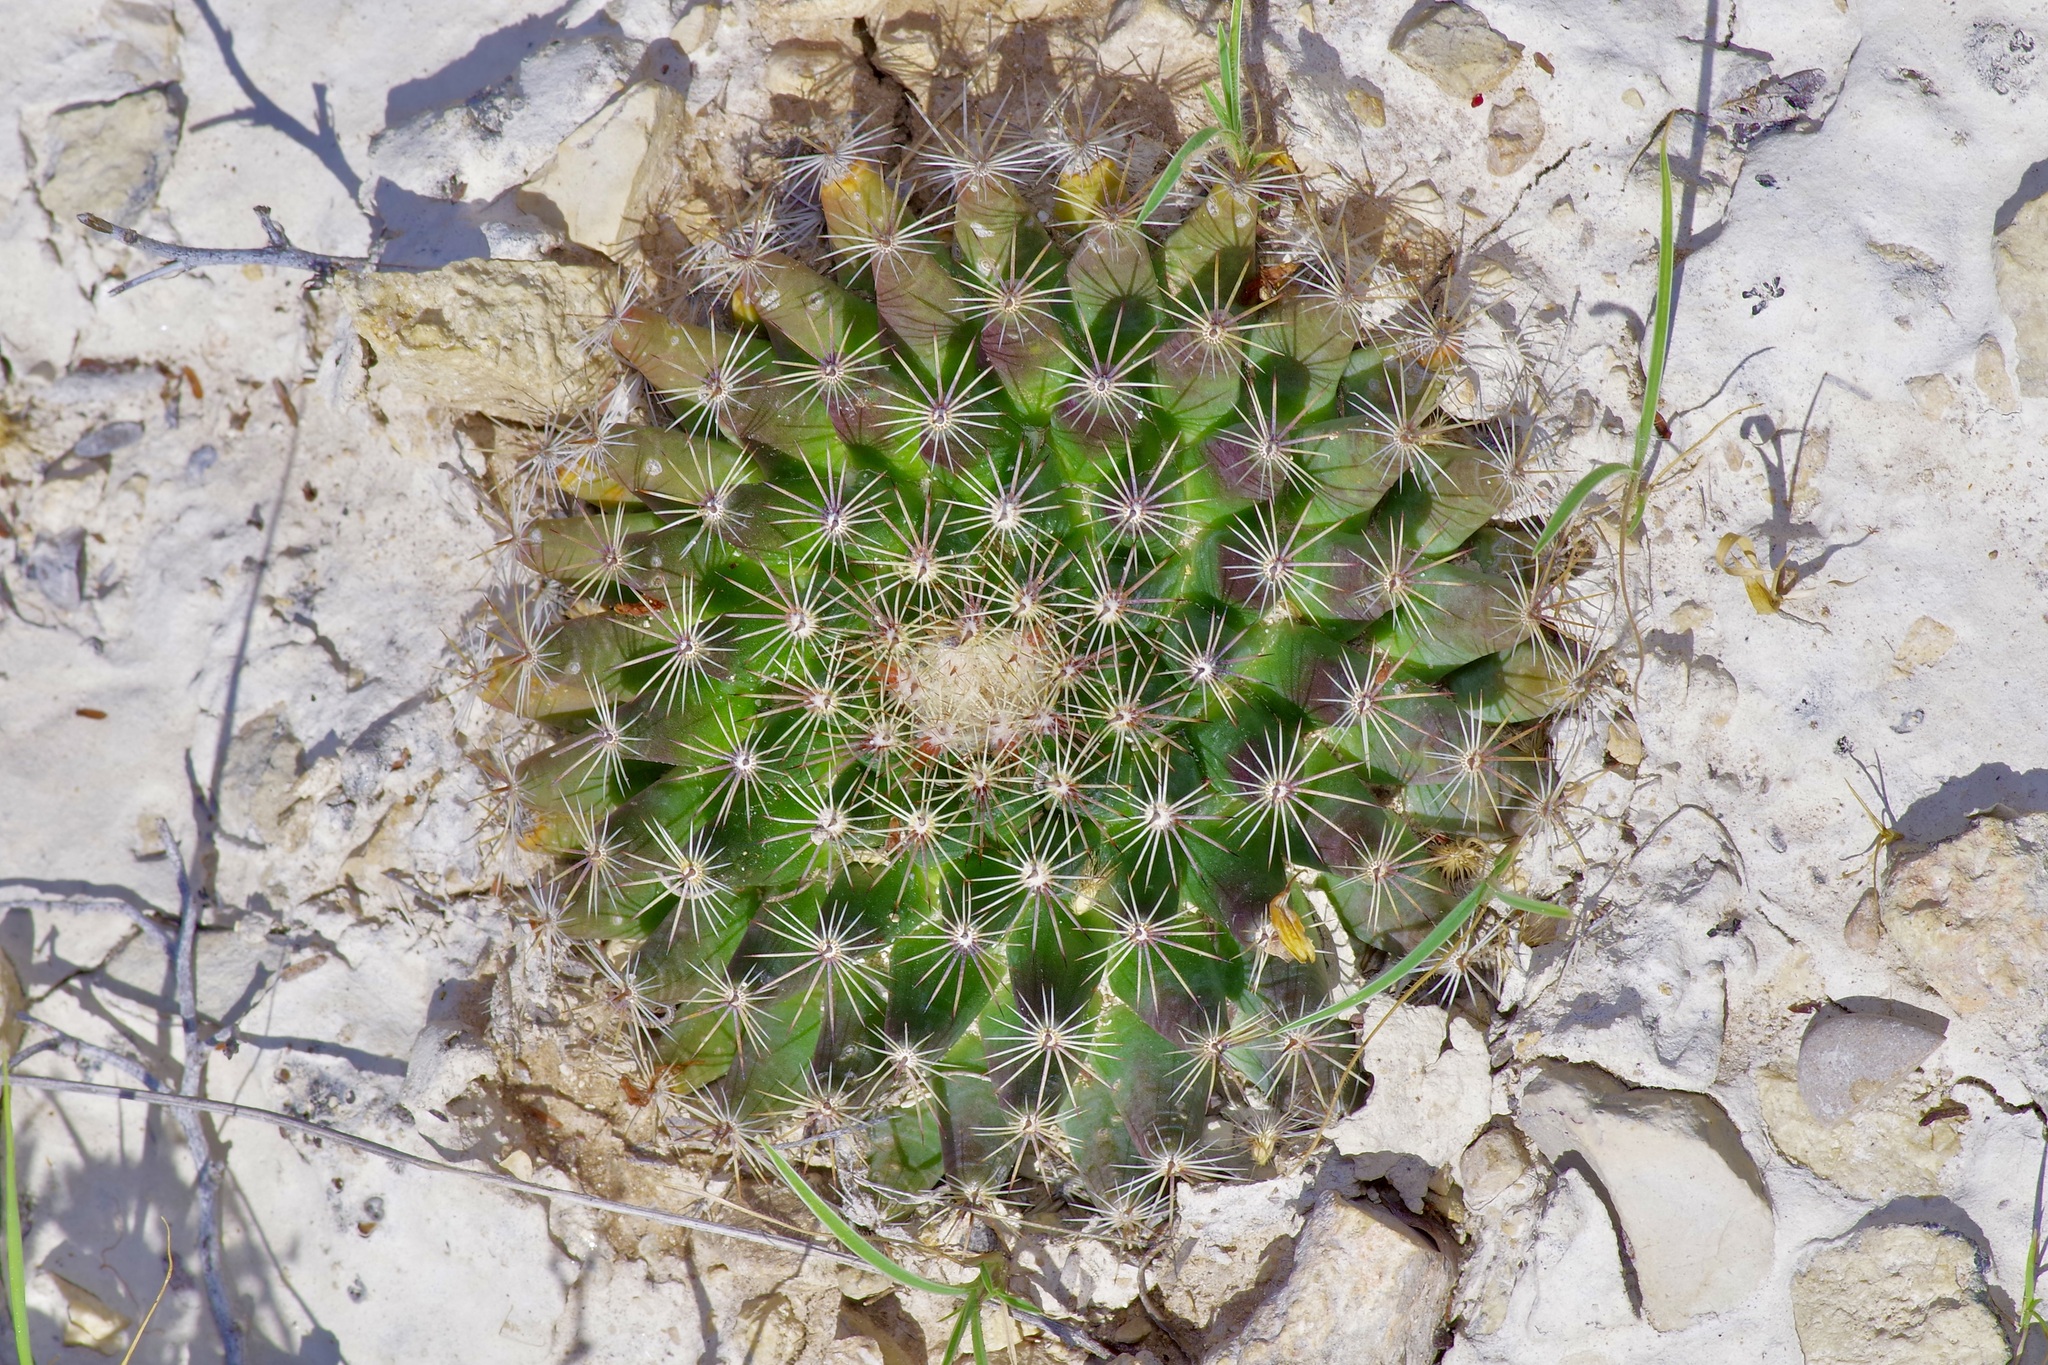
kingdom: Plantae
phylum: Tracheophyta
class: Magnoliopsida
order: Caryophyllales
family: Cactaceae
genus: Mammillaria
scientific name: Mammillaria heyderi
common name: Little nipple cactus
